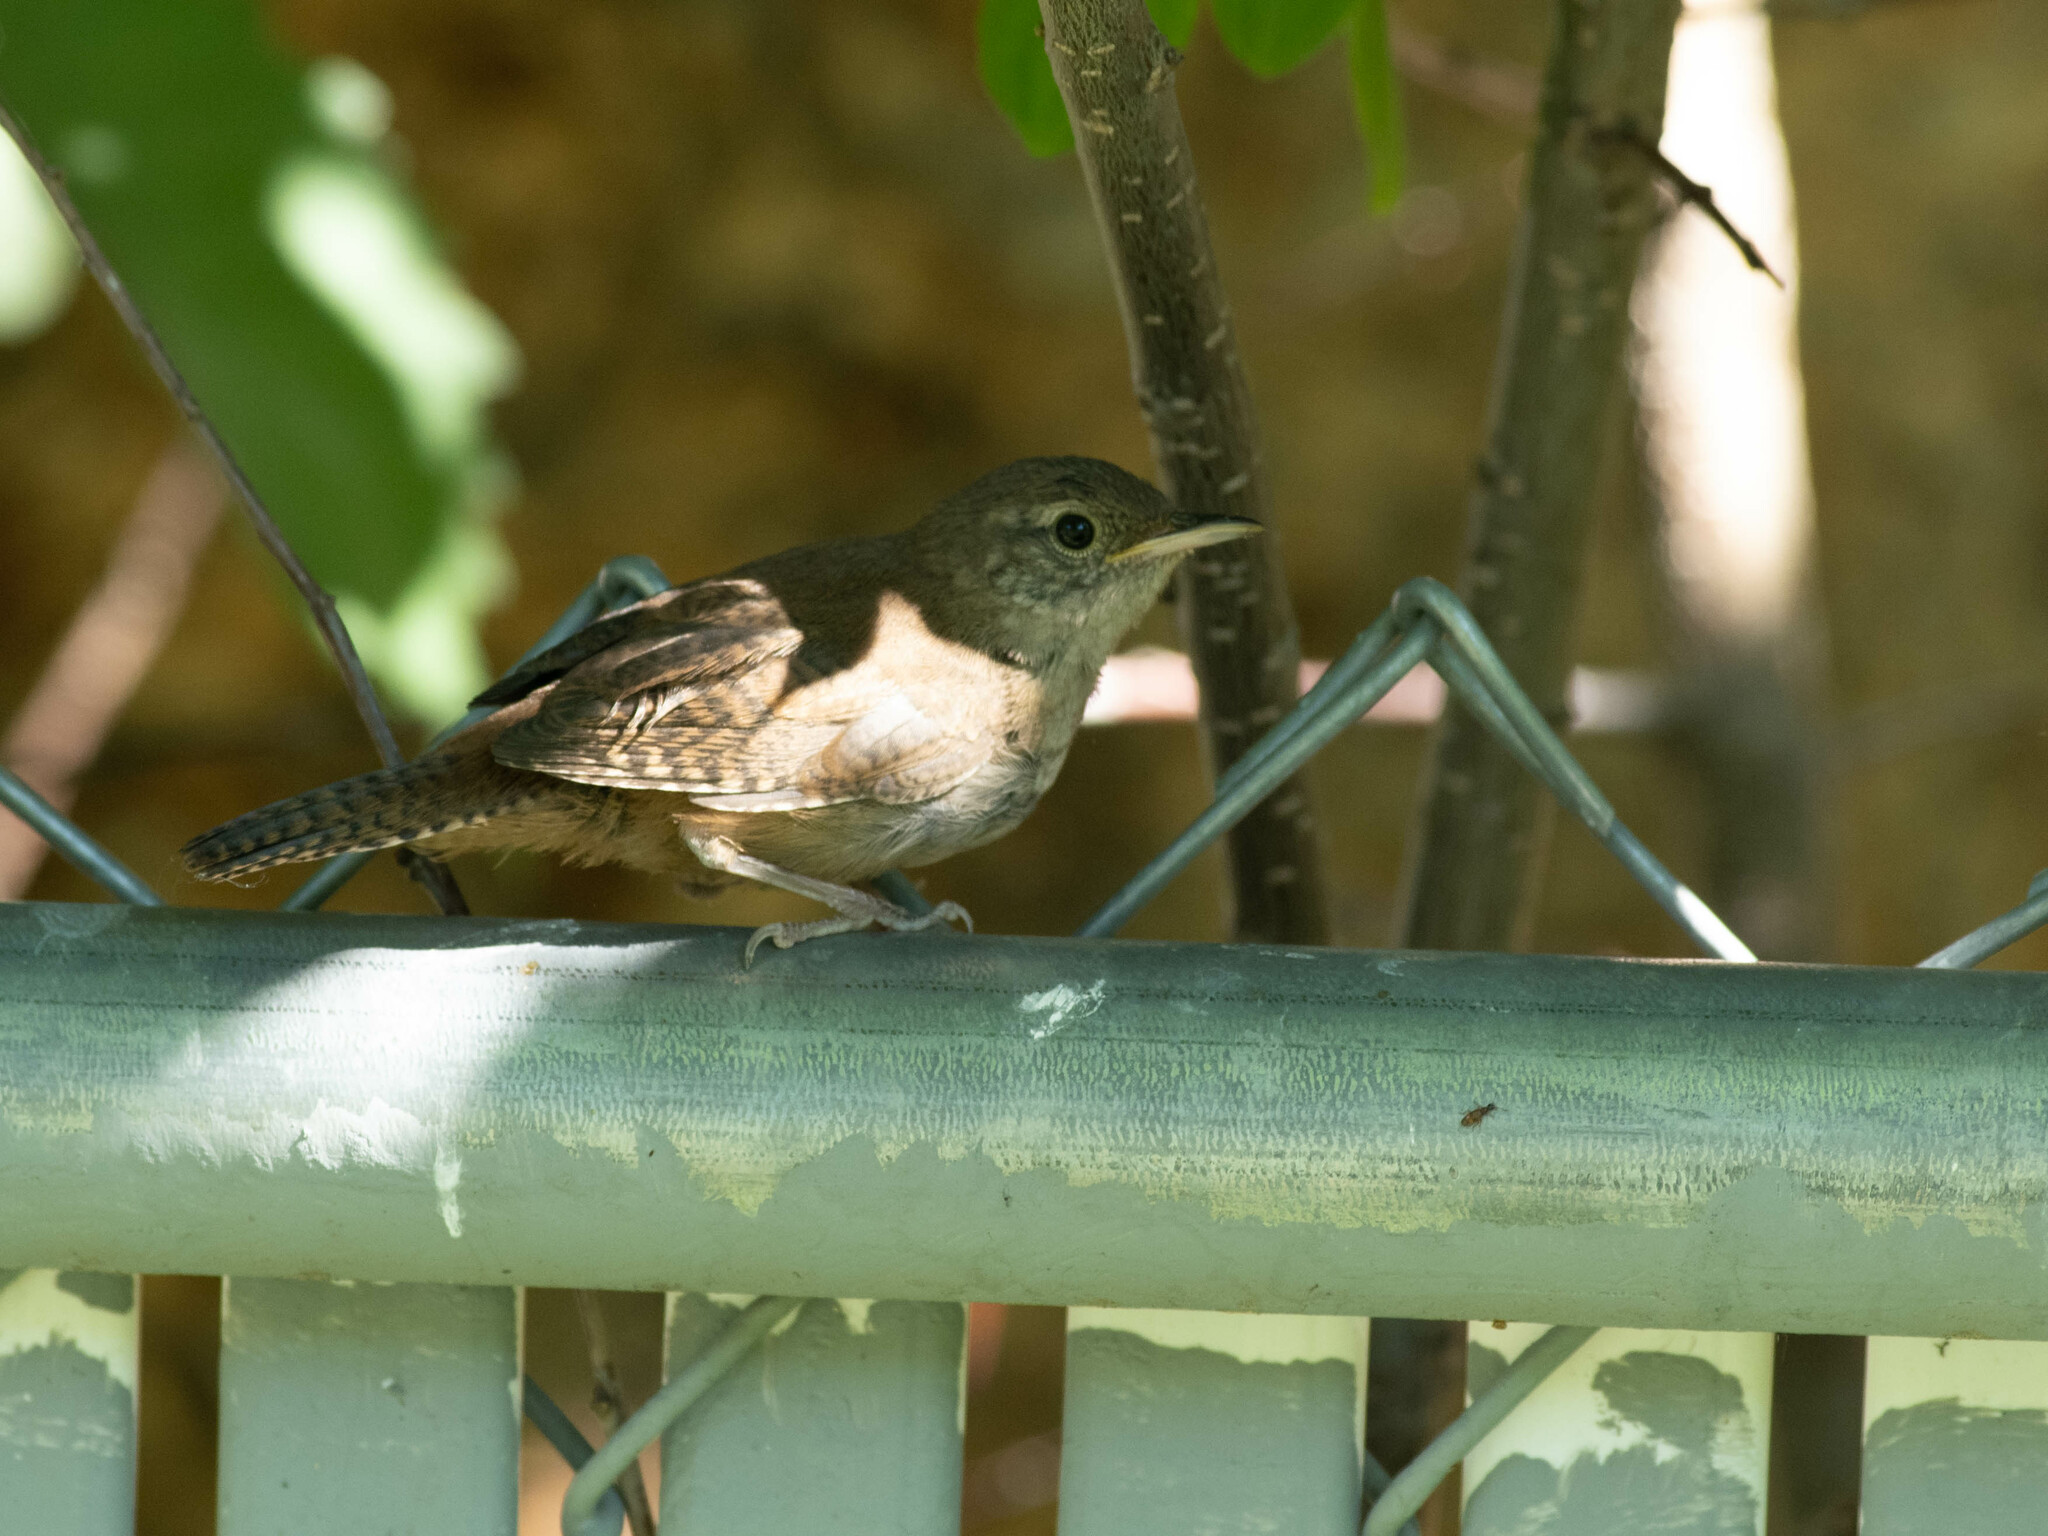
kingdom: Animalia
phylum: Chordata
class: Aves
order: Passeriformes
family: Troglodytidae
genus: Troglodytes
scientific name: Troglodytes aedon
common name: House wren
